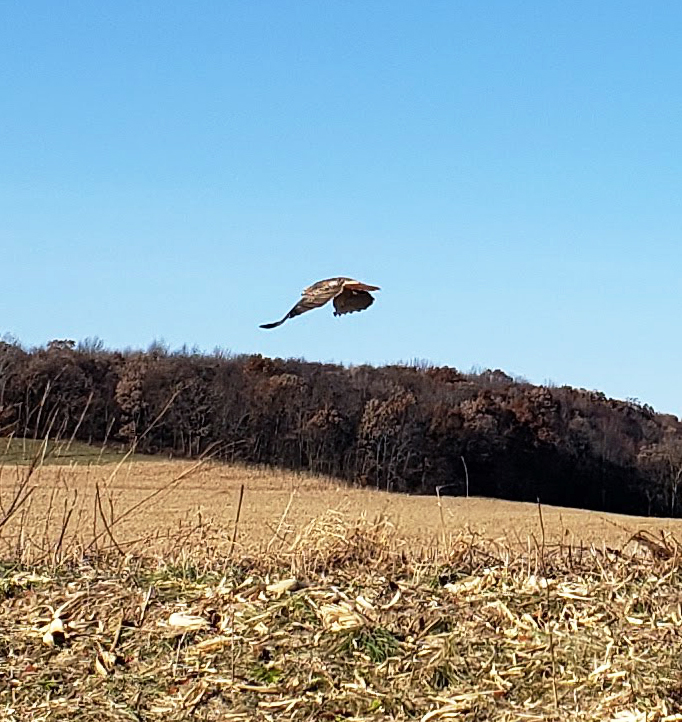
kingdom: Animalia
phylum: Chordata
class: Aves
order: Accipitriformes
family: Accipitridae
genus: Buteo
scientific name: Buteo jamaicensis
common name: Red-tailed hawk
